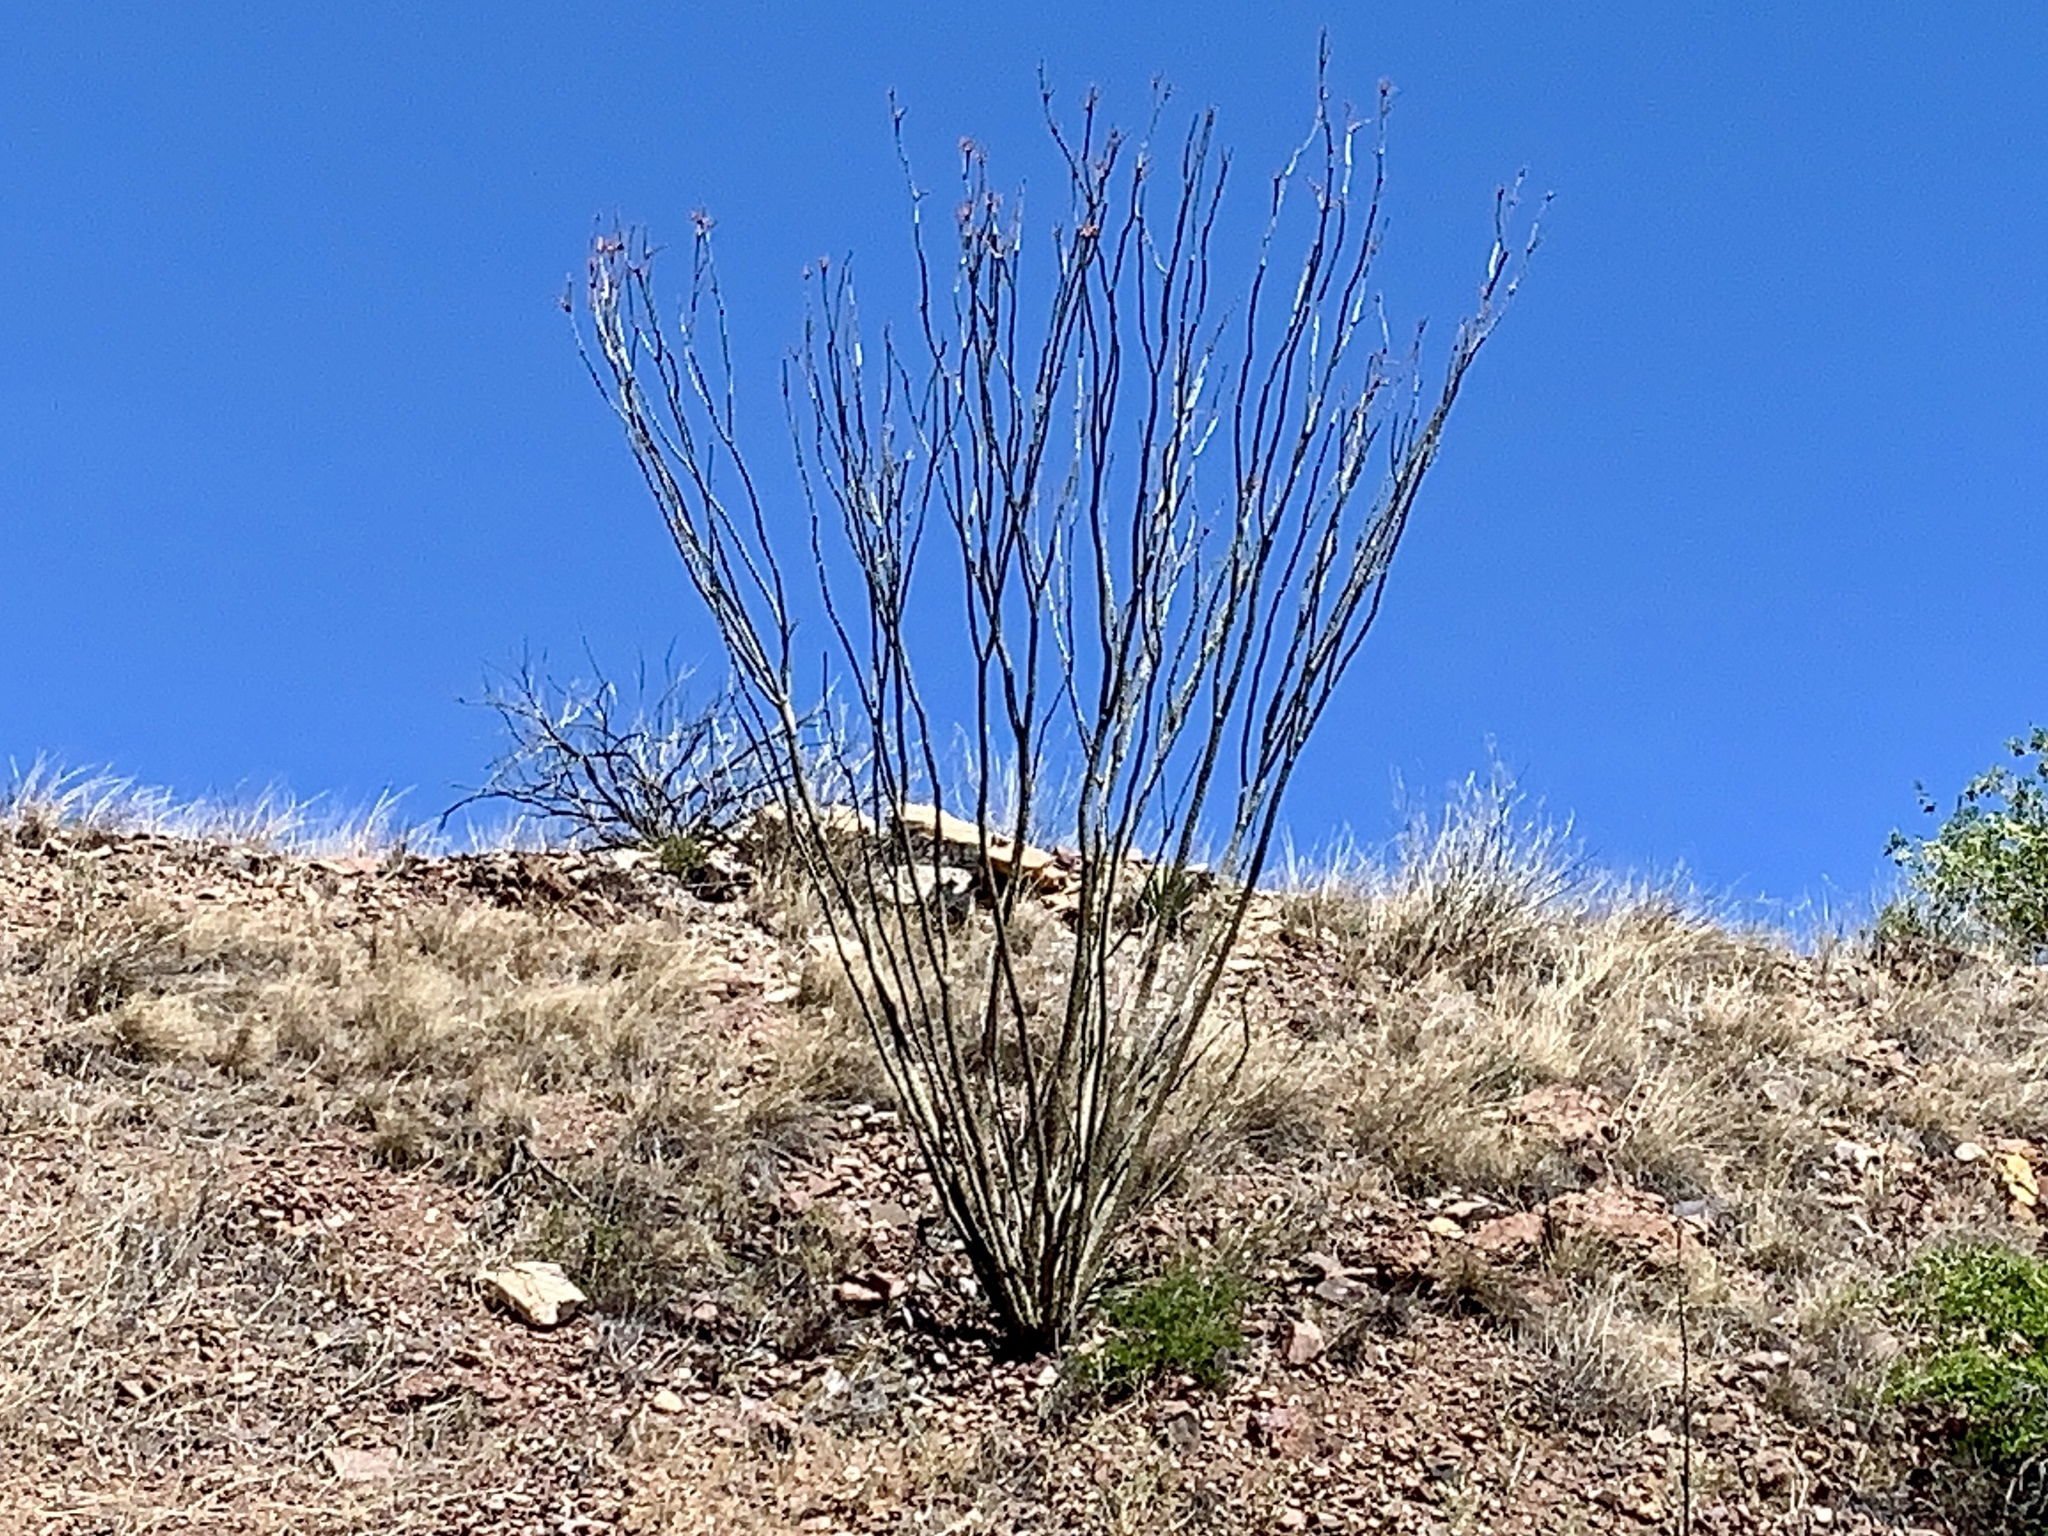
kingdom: Plantae
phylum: Tracheophyta
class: Magnoliopsida
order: Ericales
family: Fouquieriaceae
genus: Fouquieria
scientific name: Fouquieria splendens
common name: Vine-cactus
